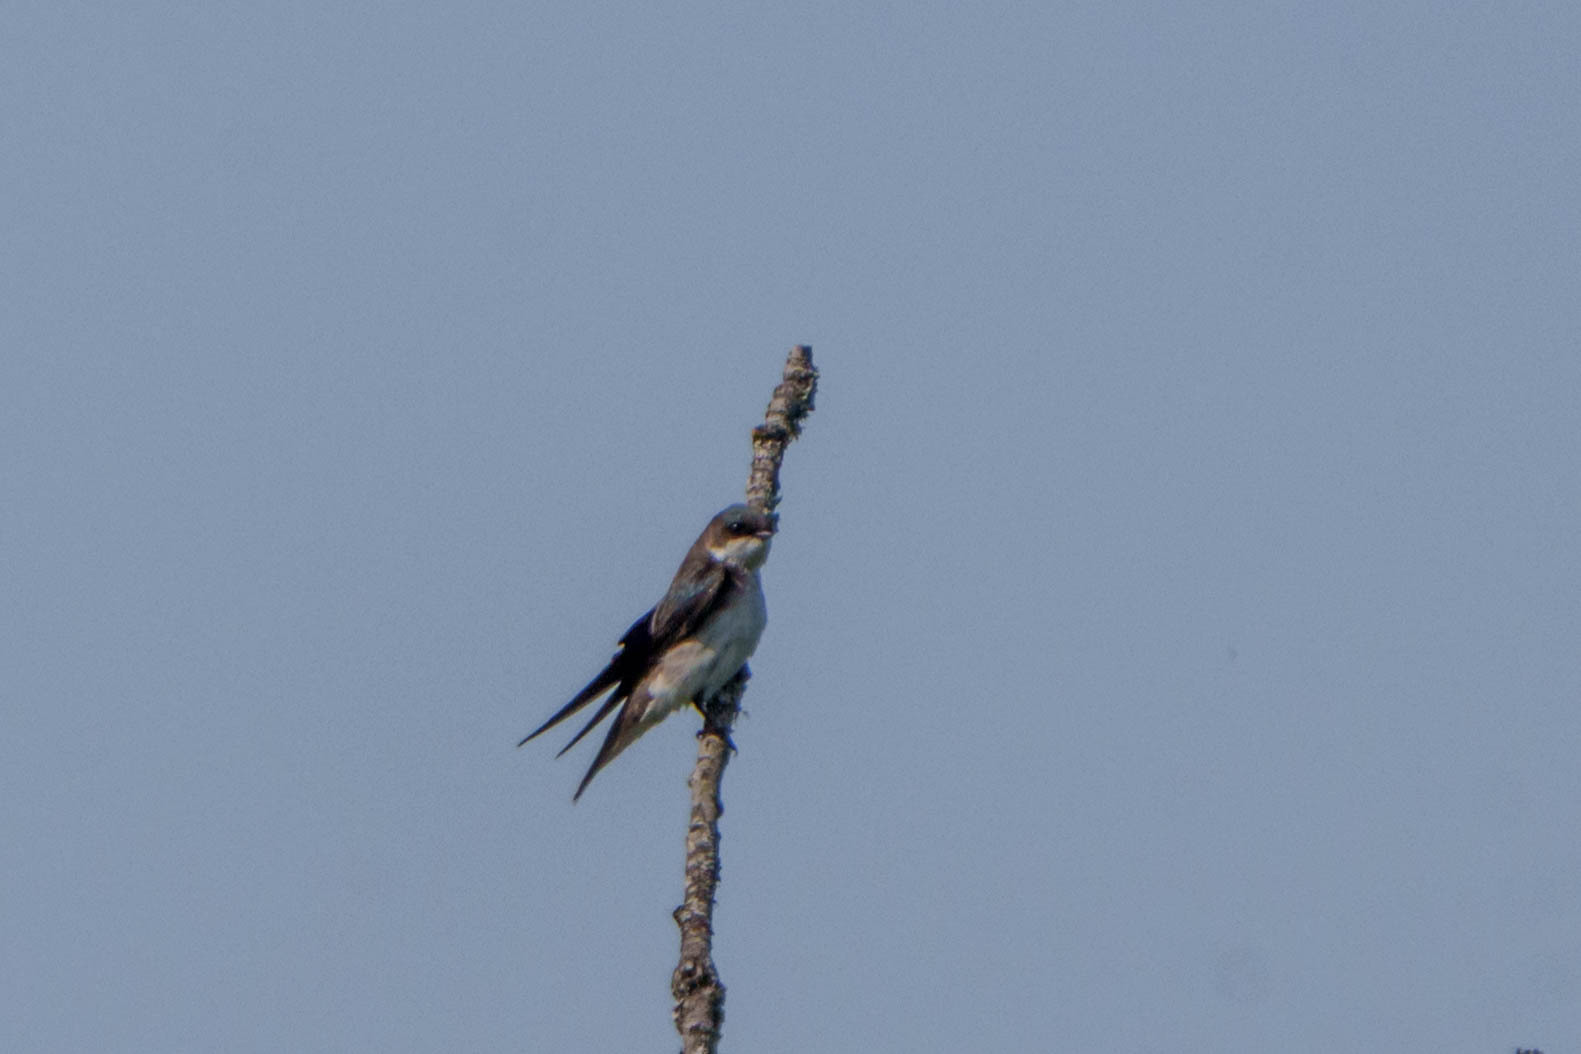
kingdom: Animalia
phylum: Chordata
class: Aves
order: Passeriformes
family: Hirundinidae
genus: Tachycineta
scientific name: Tachycineta bicolor
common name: Tree swallow
